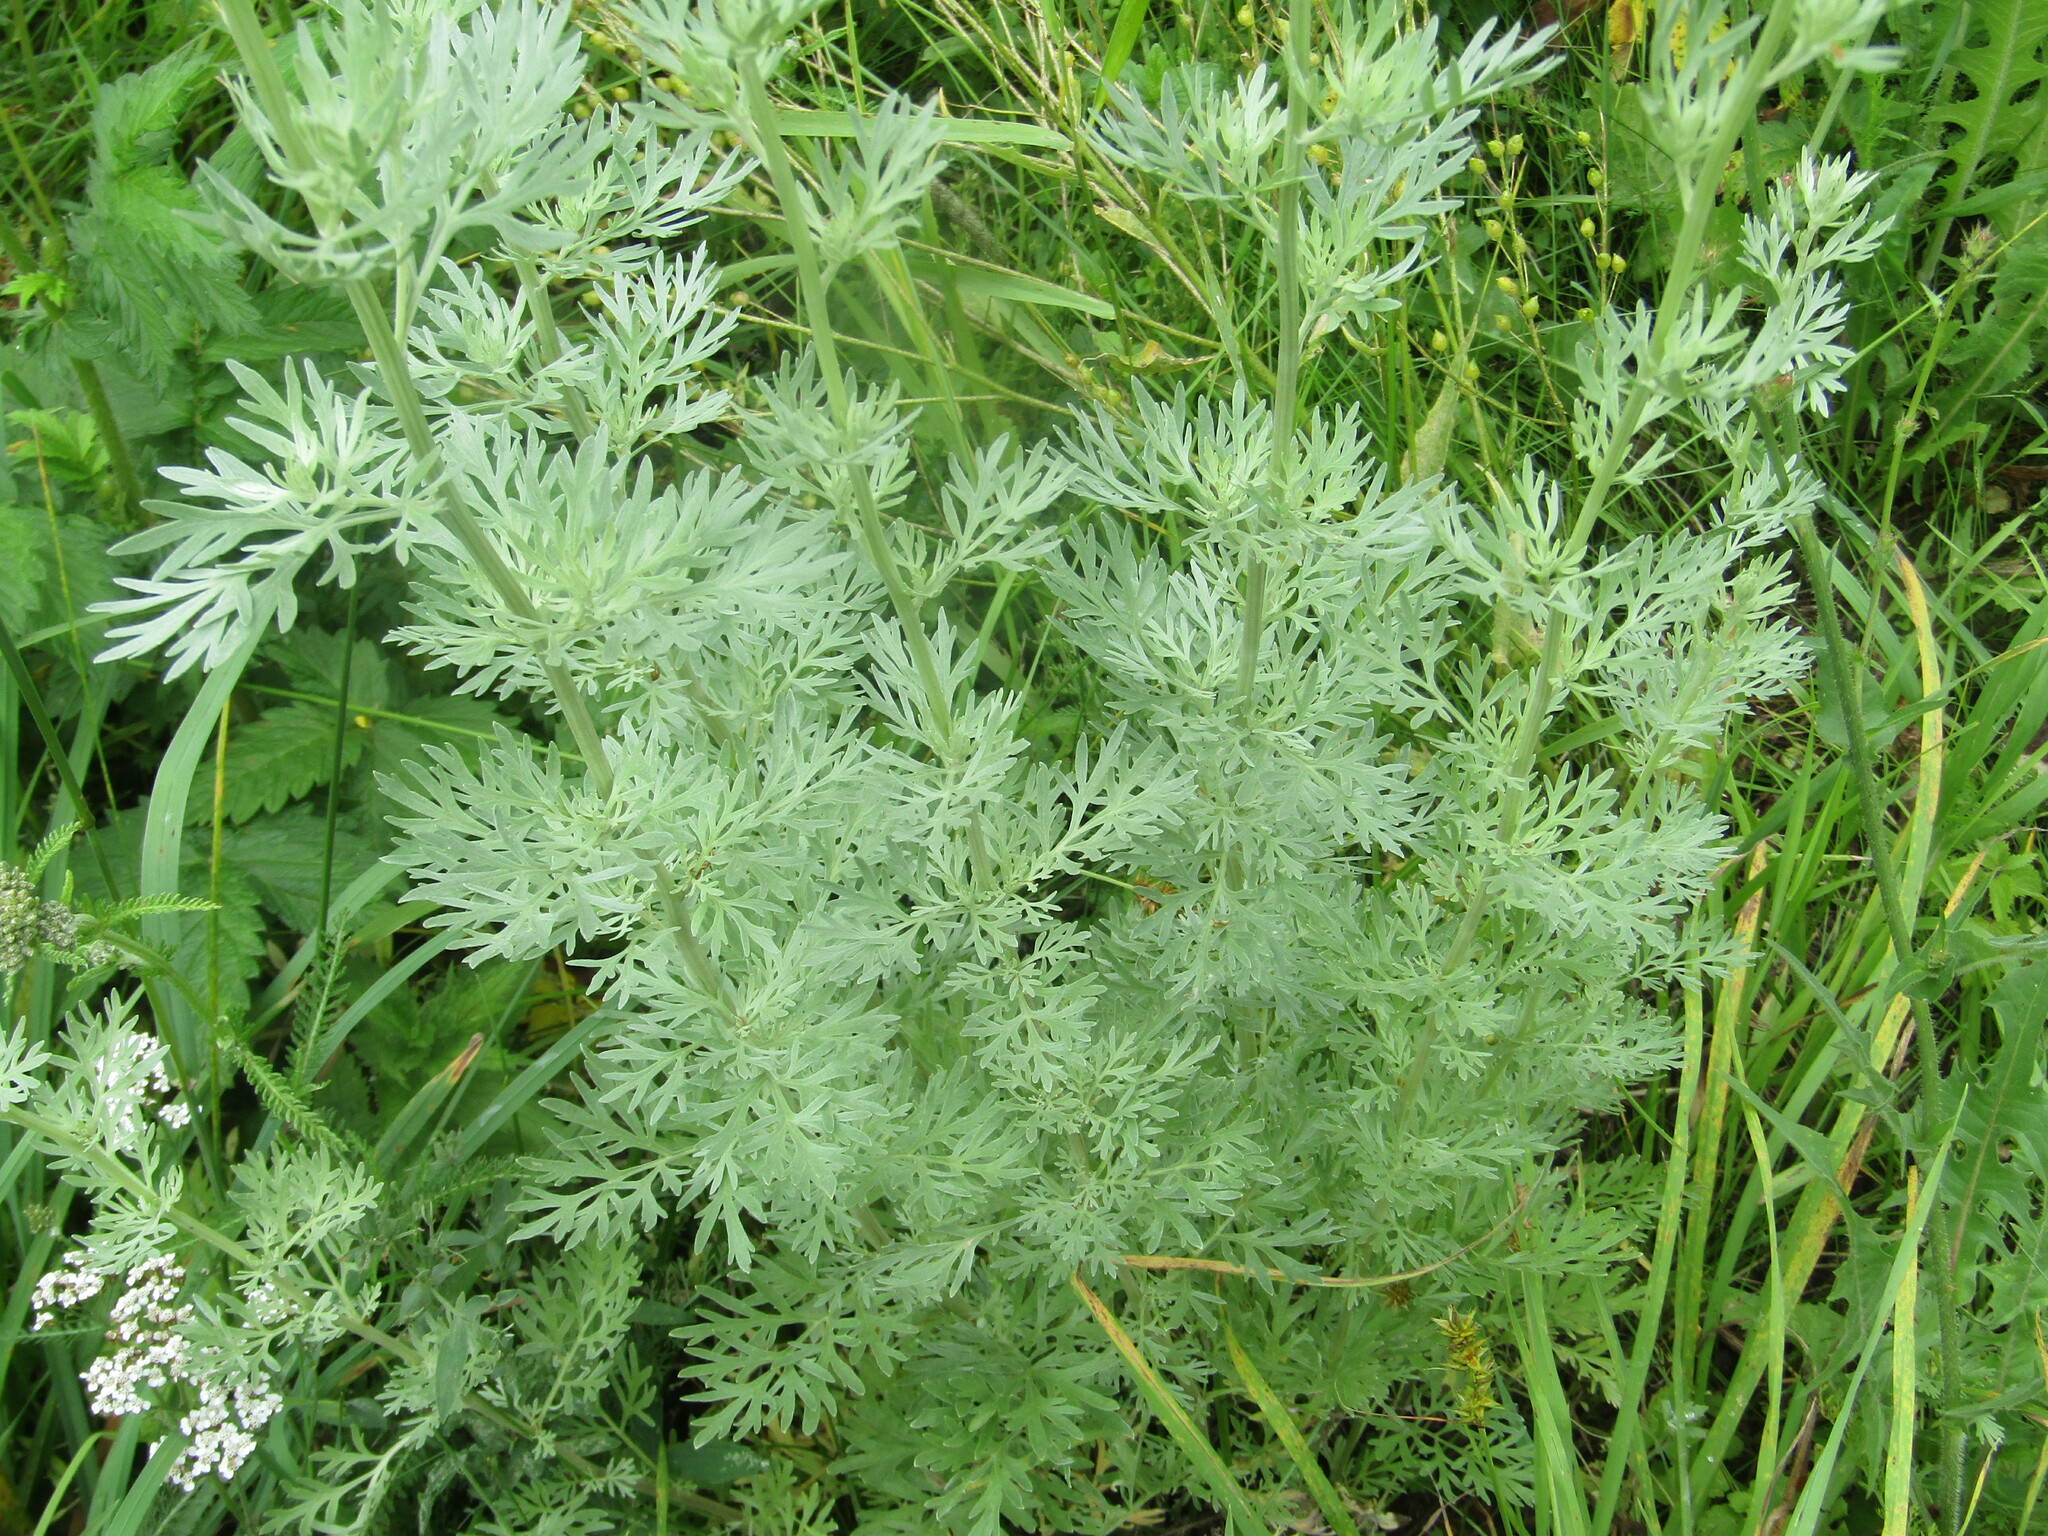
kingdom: Plantae
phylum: Tracheophyta
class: Magnoliopsida
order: Asterales
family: Asteraceae
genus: Artemisia
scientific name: Artemisia absinthium
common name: Wormwood
